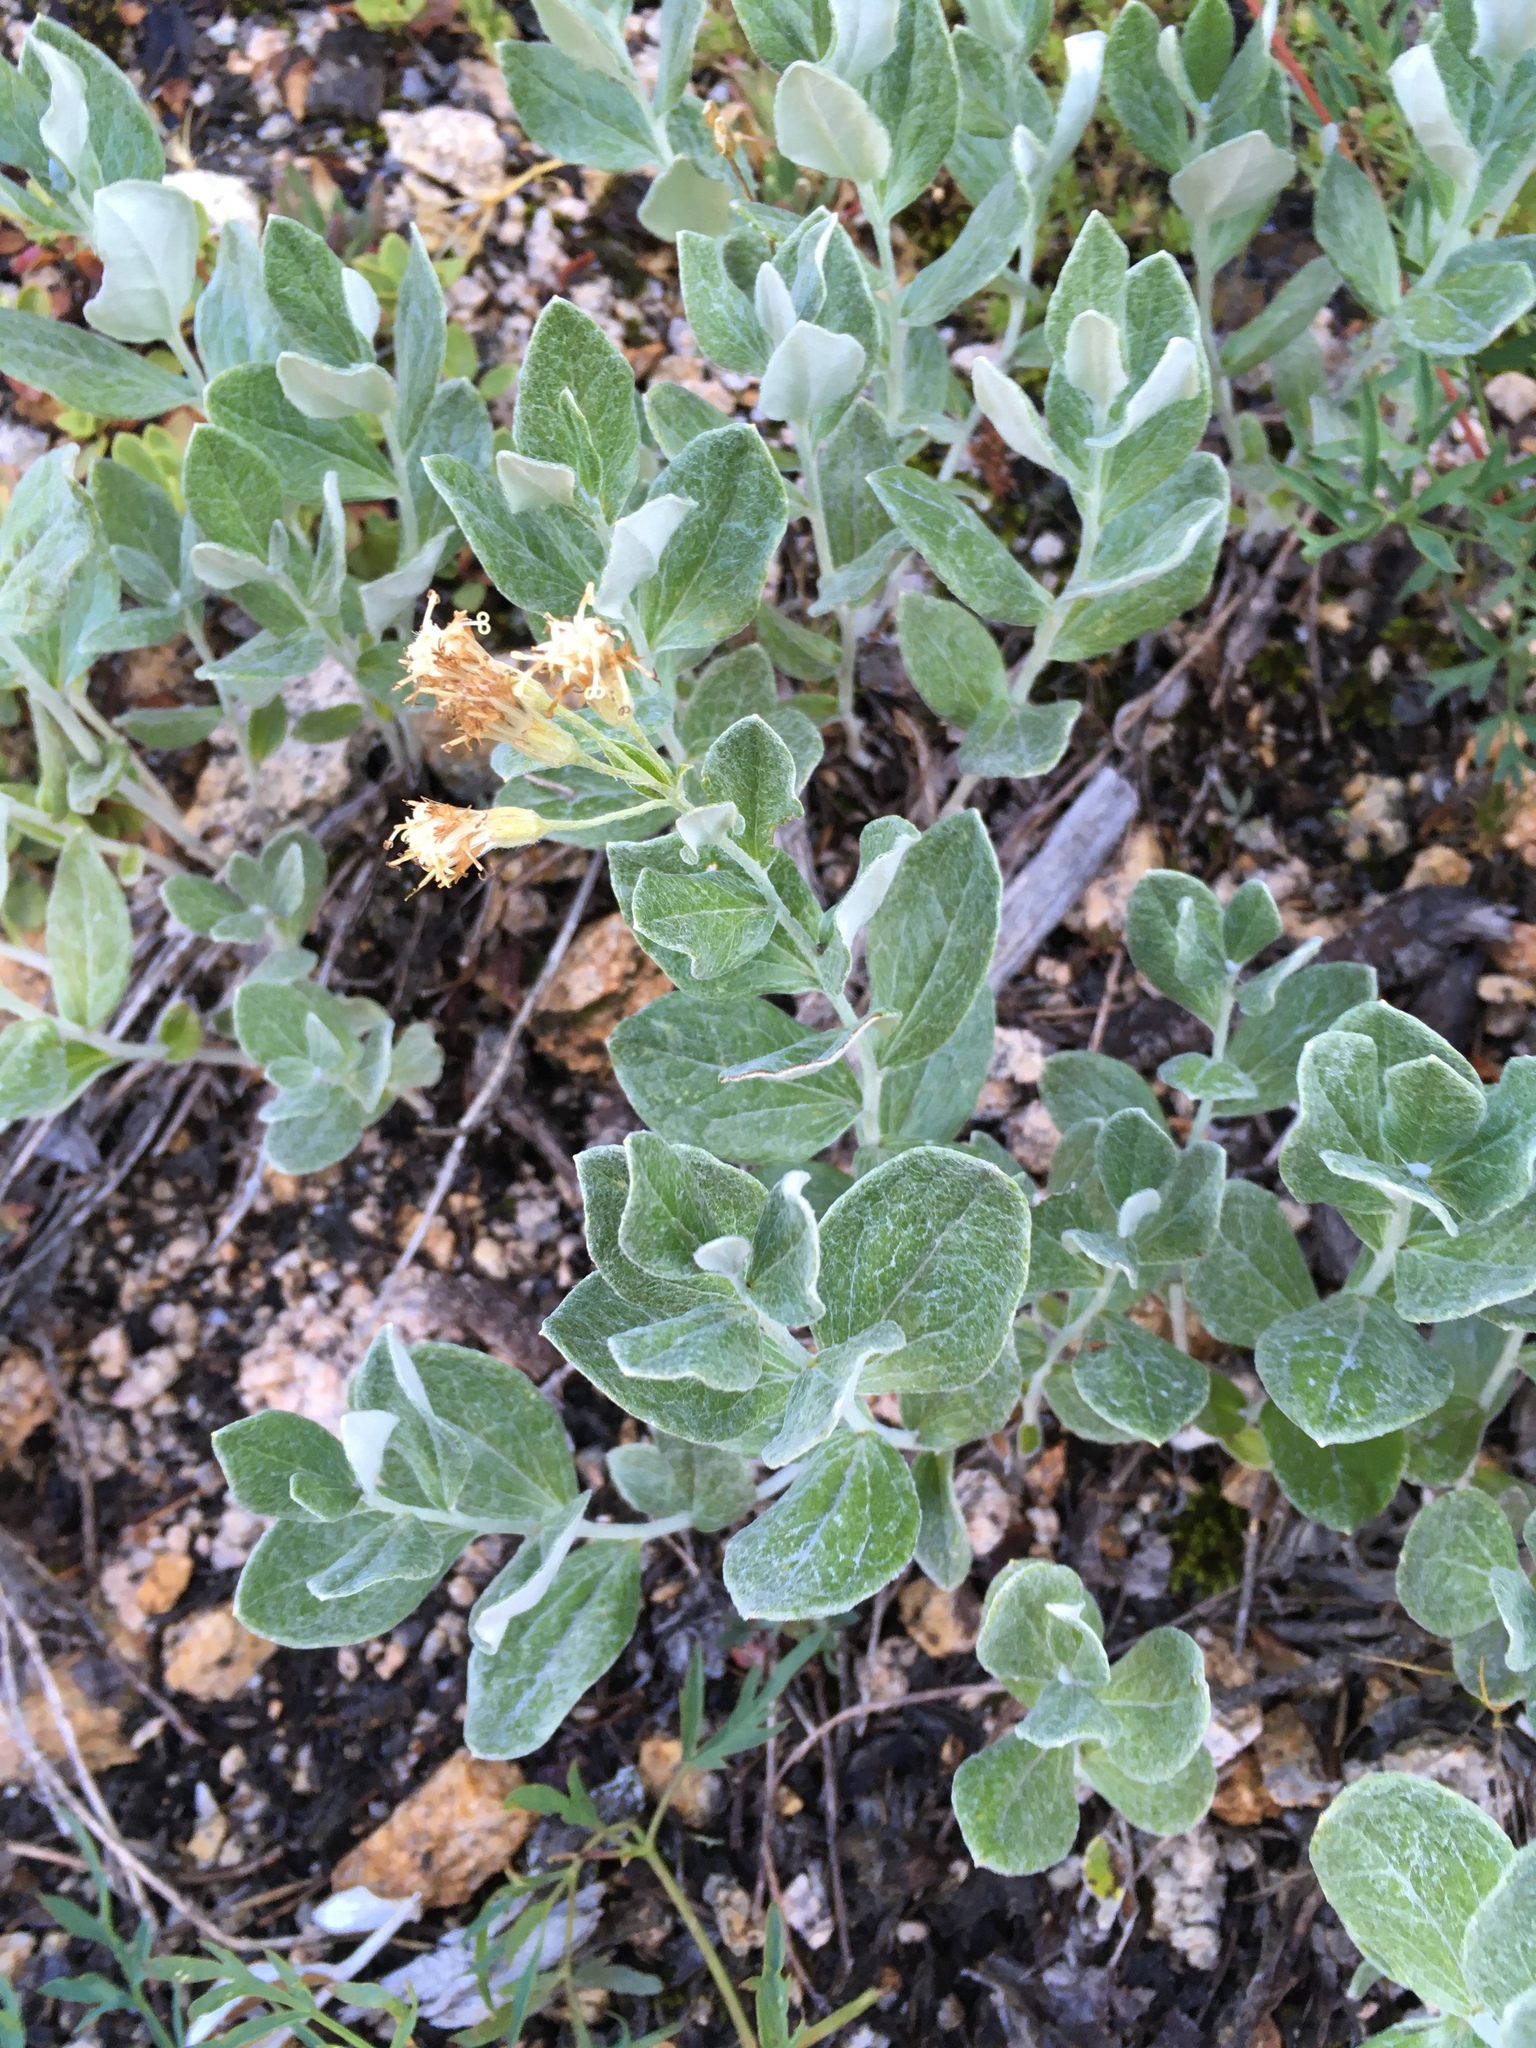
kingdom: Plantae
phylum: Tracheophyta
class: Magnoliopsida
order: Asterales
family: Asteraceae
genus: Luina
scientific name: Luina hypoleuca
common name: Little-leaved luina
